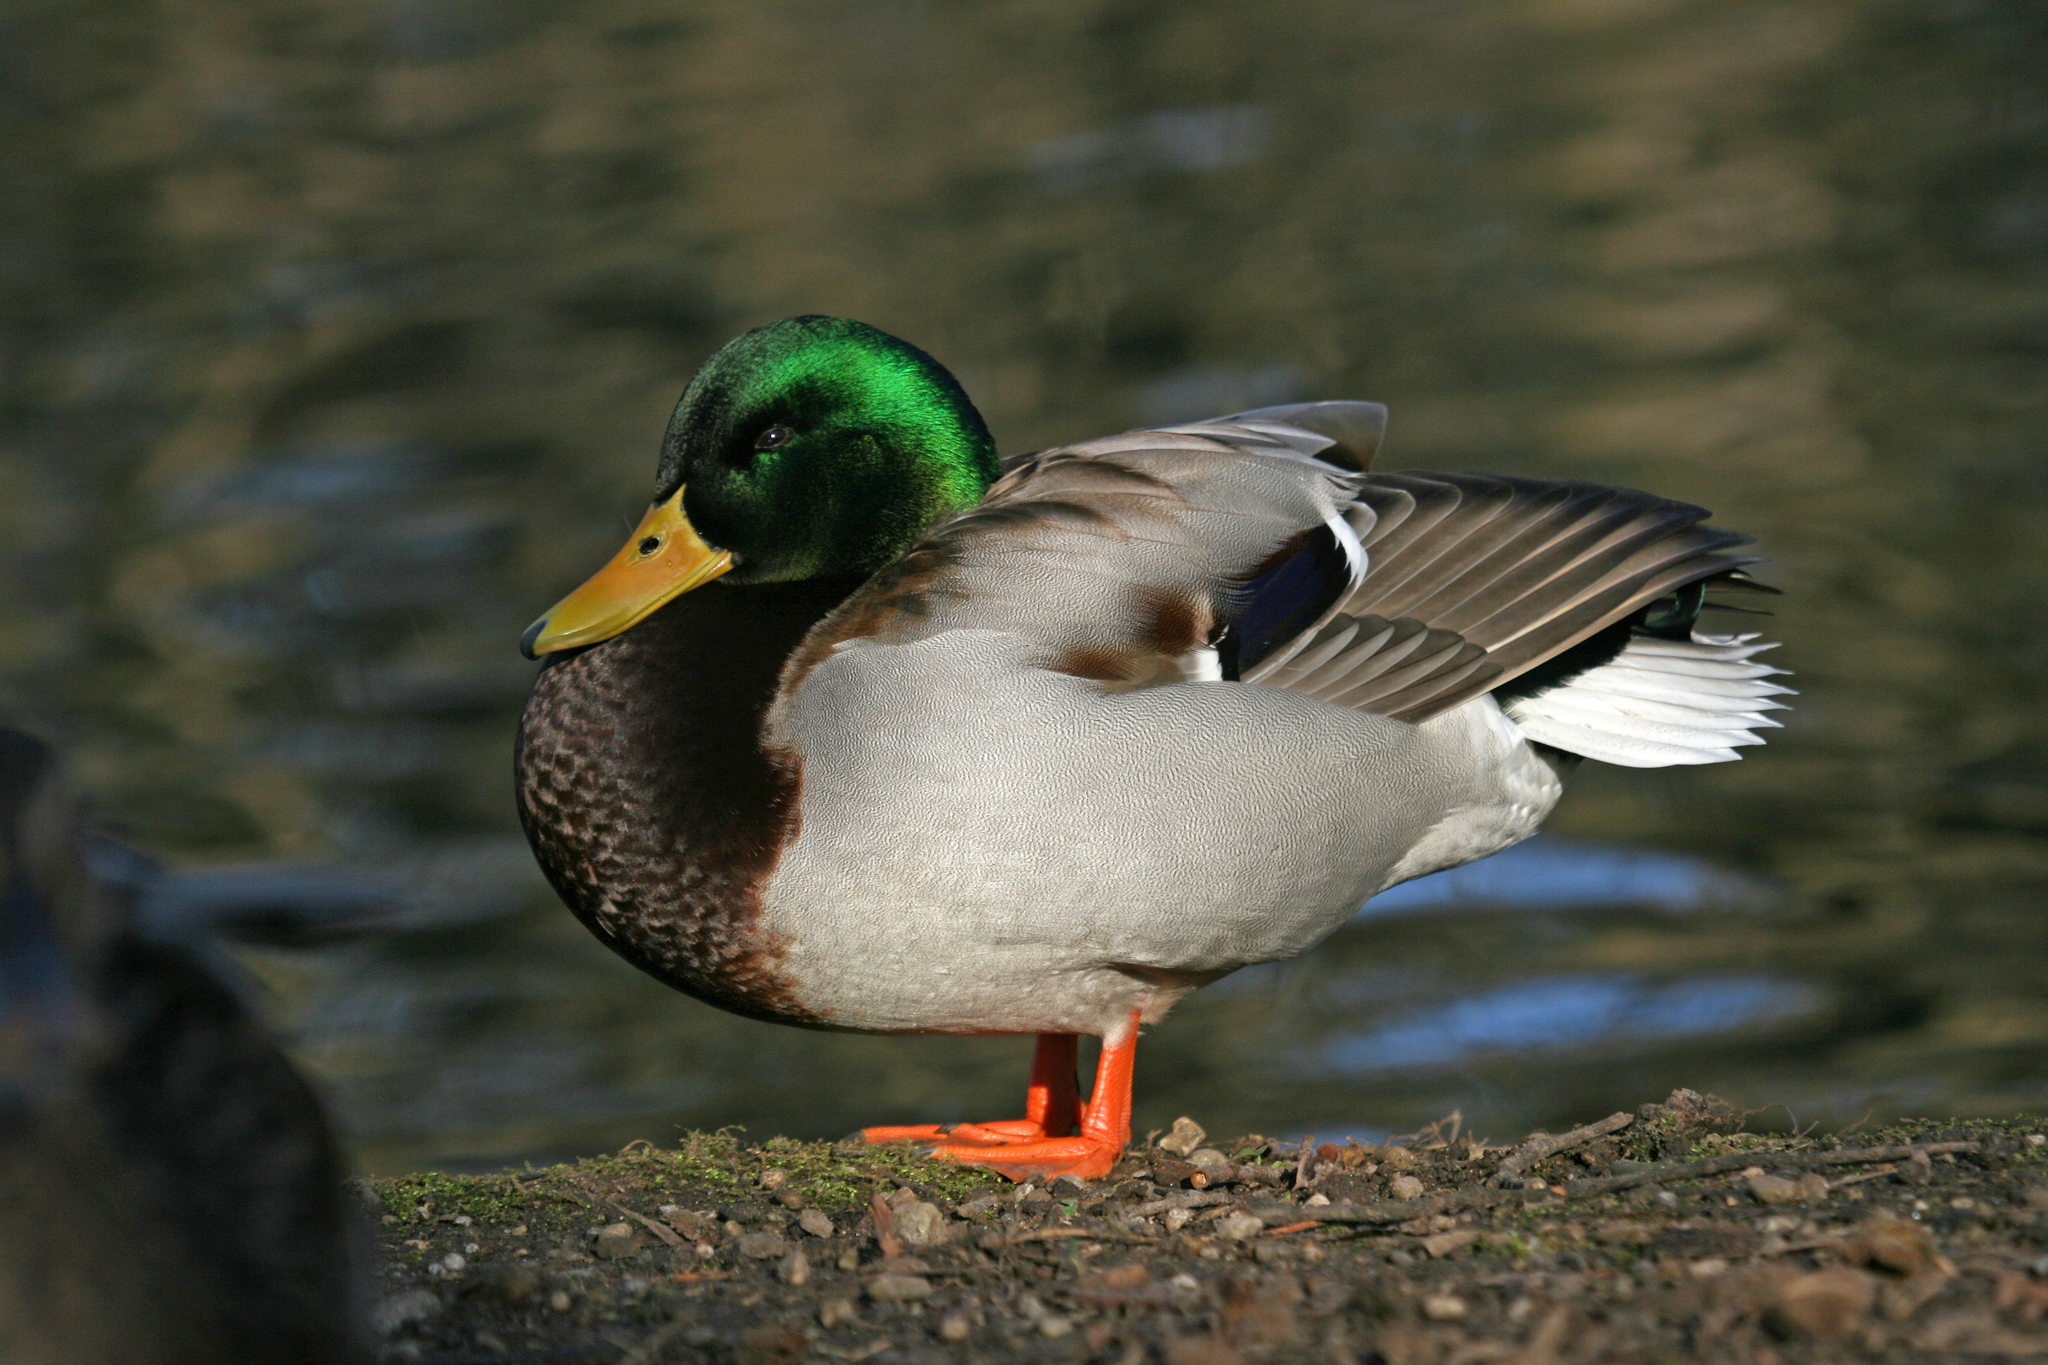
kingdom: Animalia
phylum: Chordata
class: Aves
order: Anseriformes
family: Anatidae
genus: Anas
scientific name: Anas platyrhynchos
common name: Mallard
